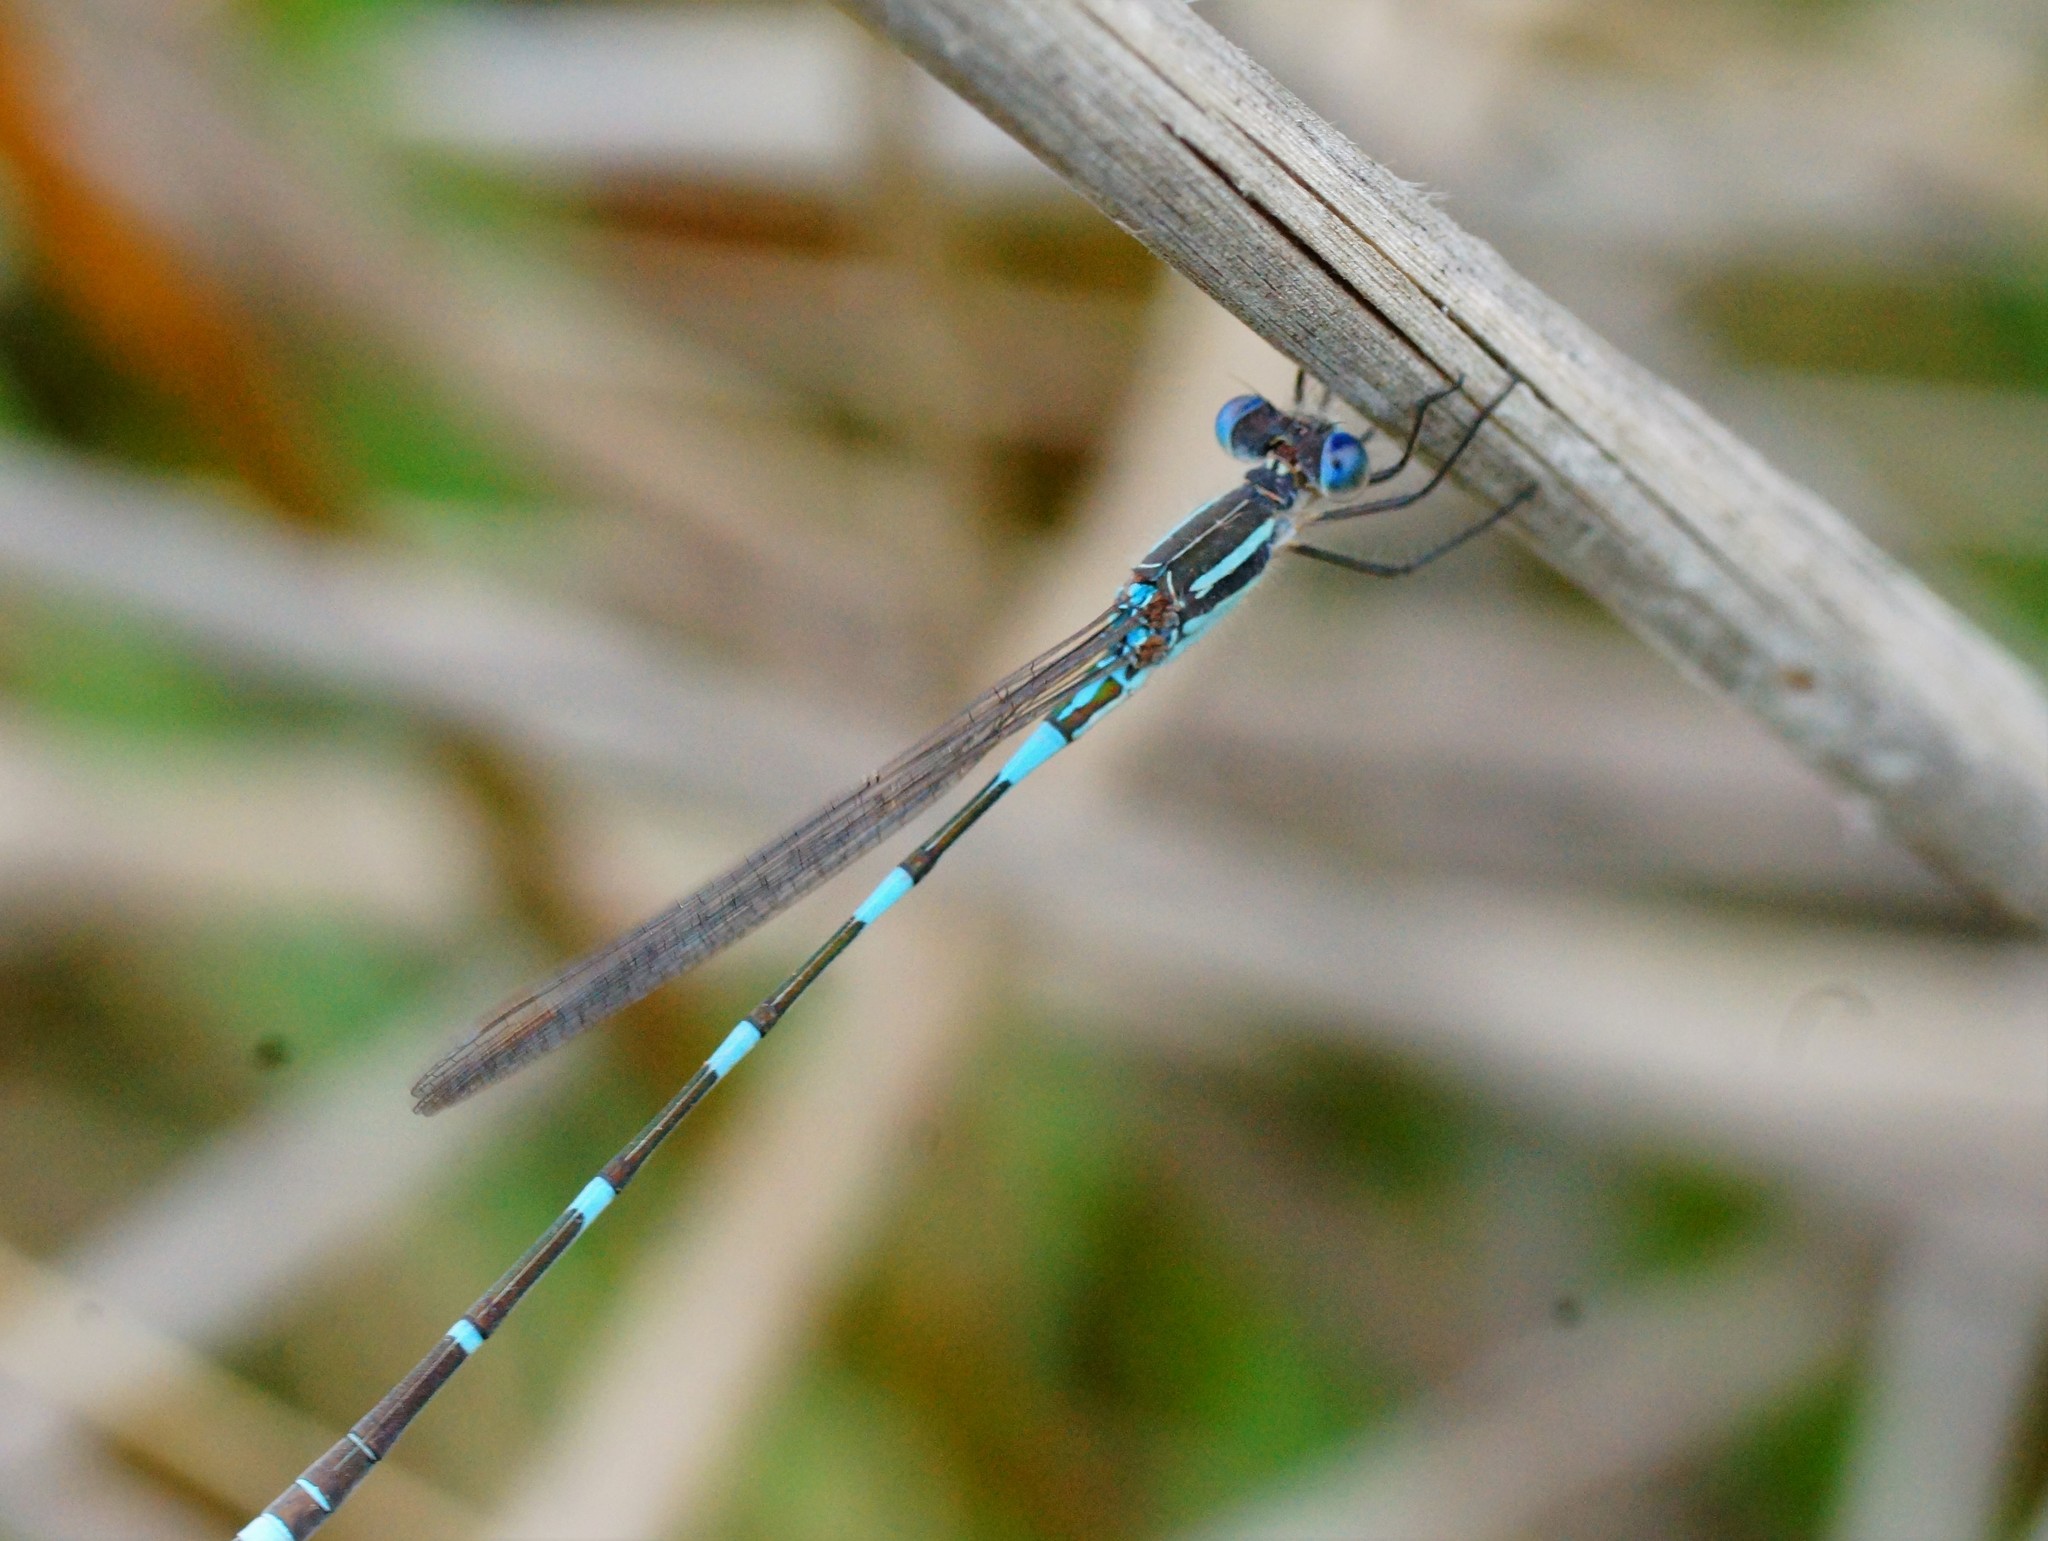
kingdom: Animalia
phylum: Arthropoda
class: Insecta
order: Odonata
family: Lestidae
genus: Austrolestes
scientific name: Austrolestes leda
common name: Wandering ringtail
